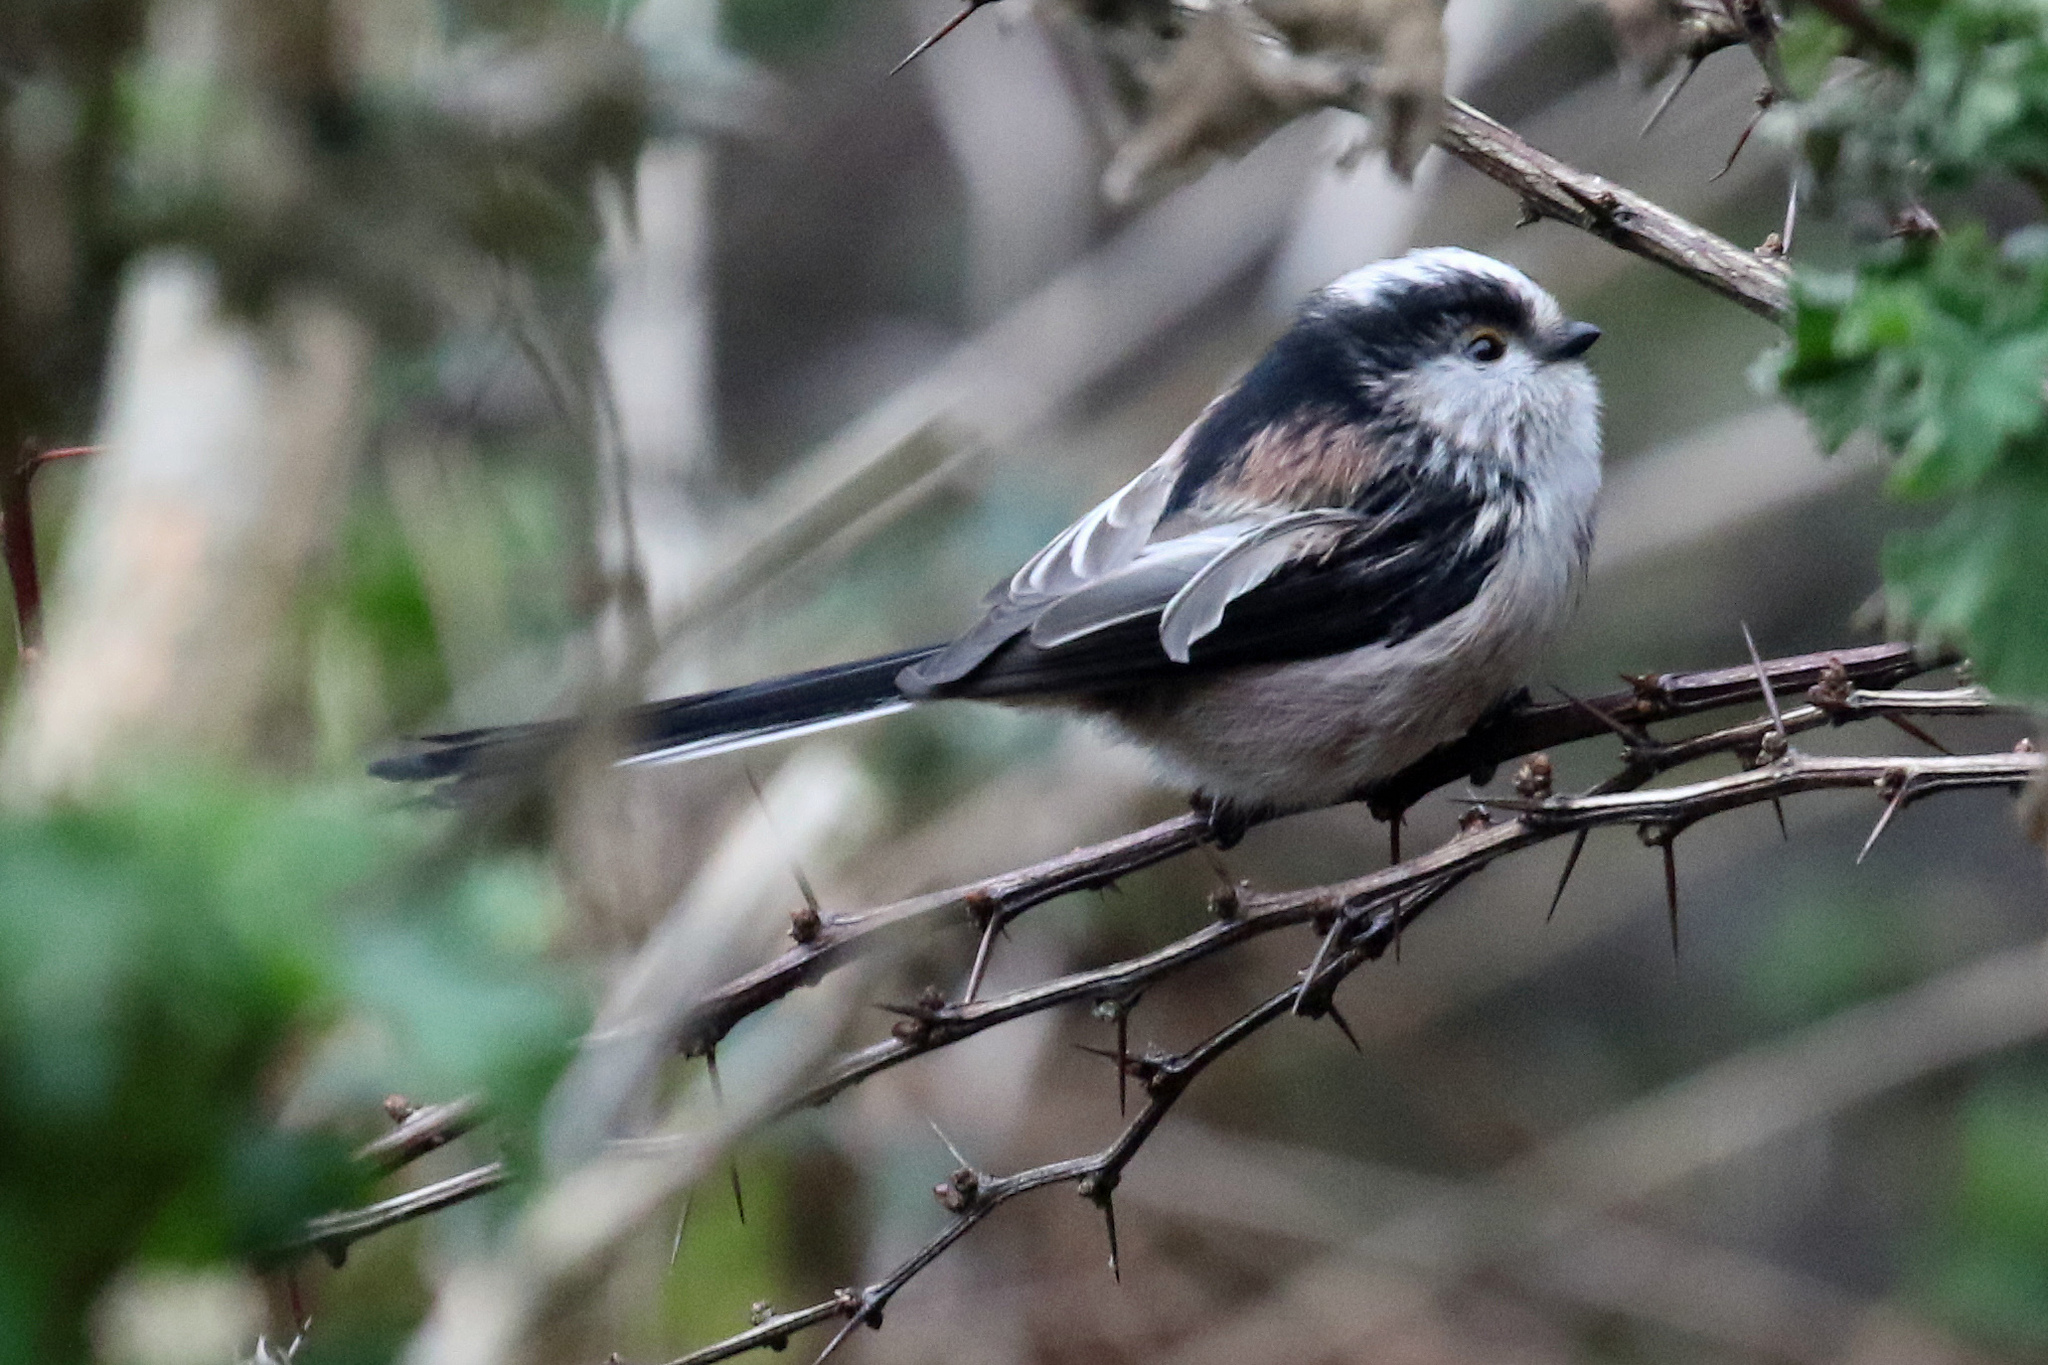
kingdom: Animalia
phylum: Chordata
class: Aves
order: Passeriformes
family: Aegithalidae
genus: Aegithalos
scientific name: Aegithalos caudatus
